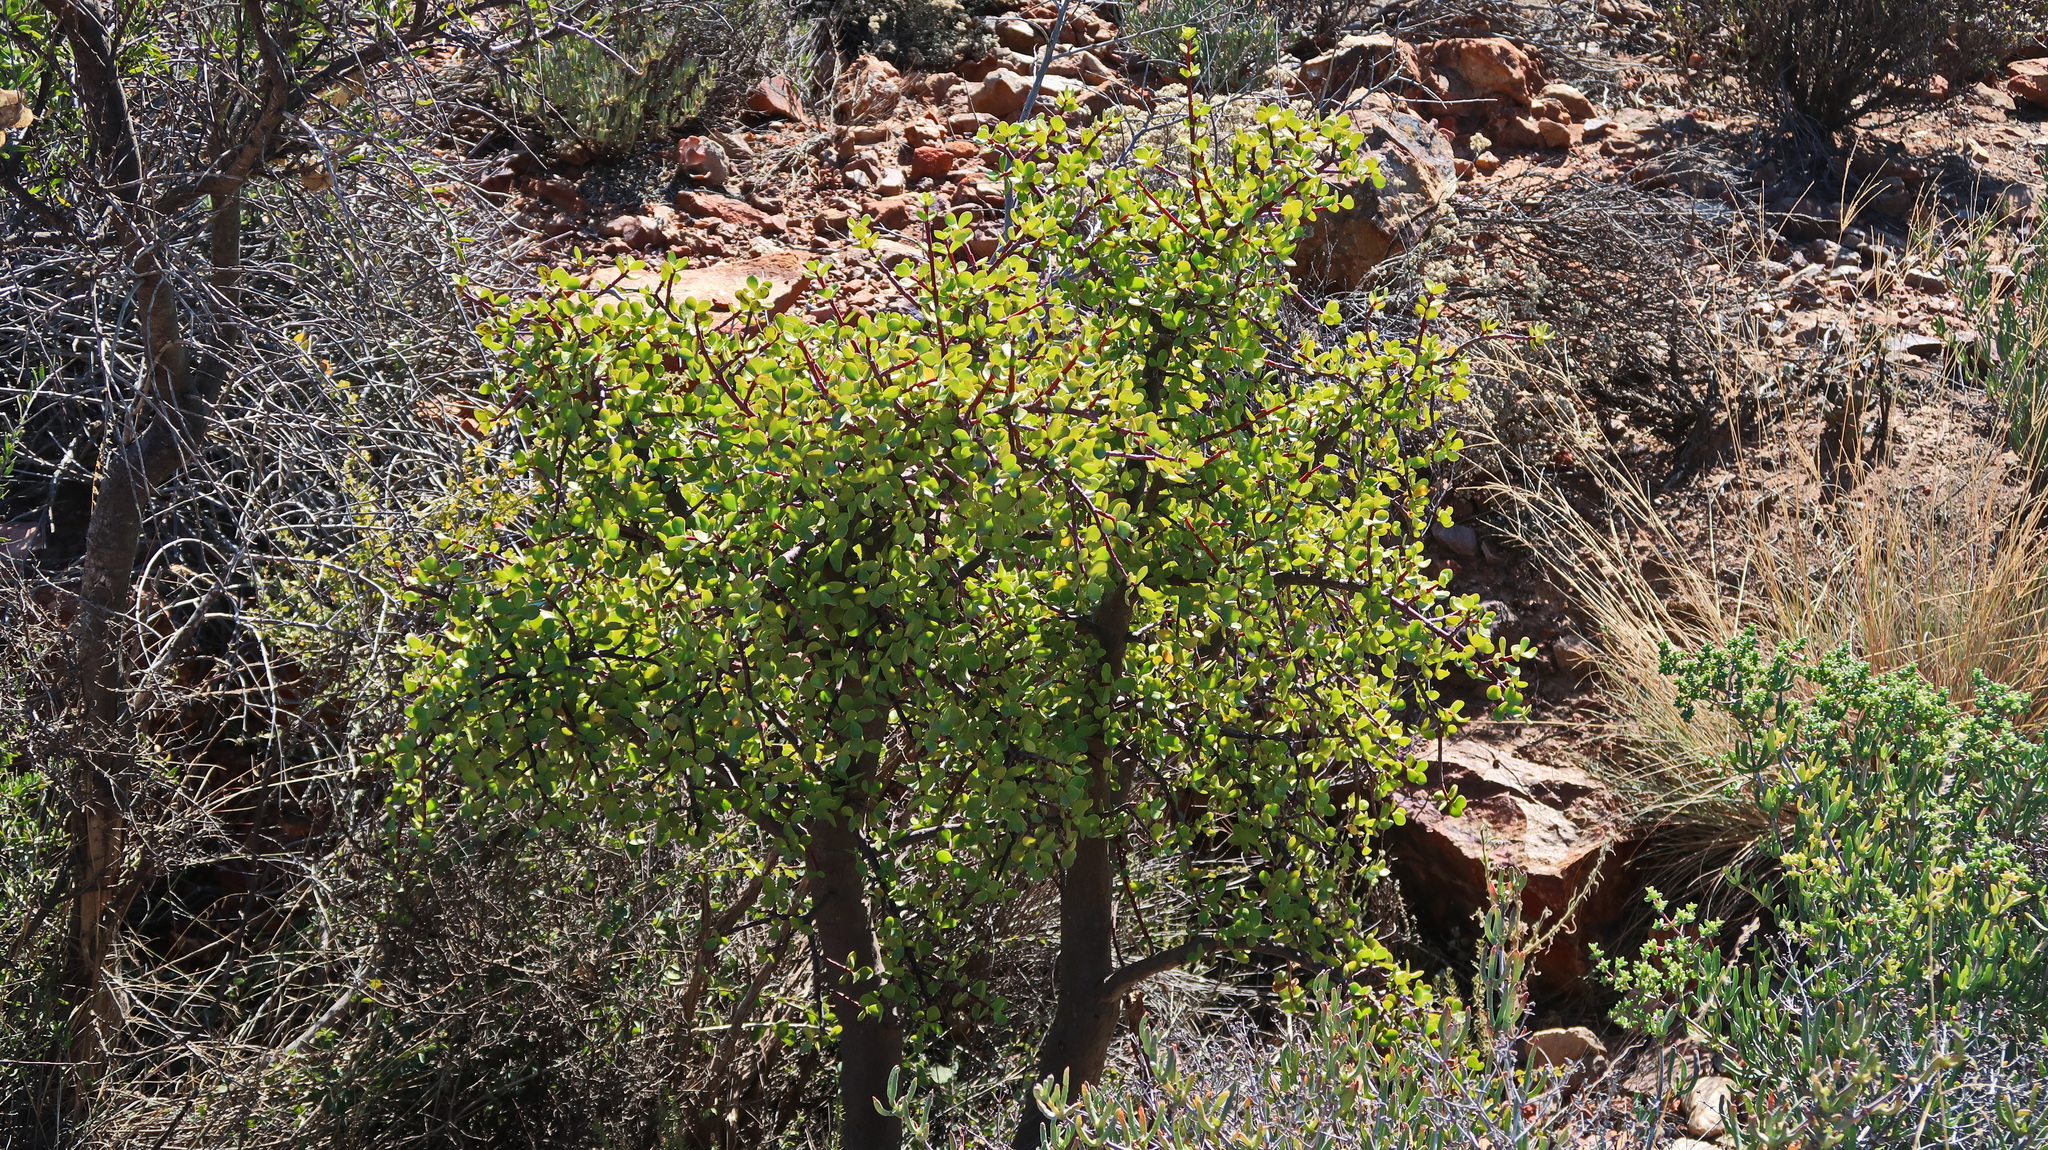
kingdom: Plantae
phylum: Tracheophyta
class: Magnoliopsida
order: Caryophyllales
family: Didiereaceae
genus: Portulacaria
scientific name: Portulacaria afra
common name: Elephant-bush
